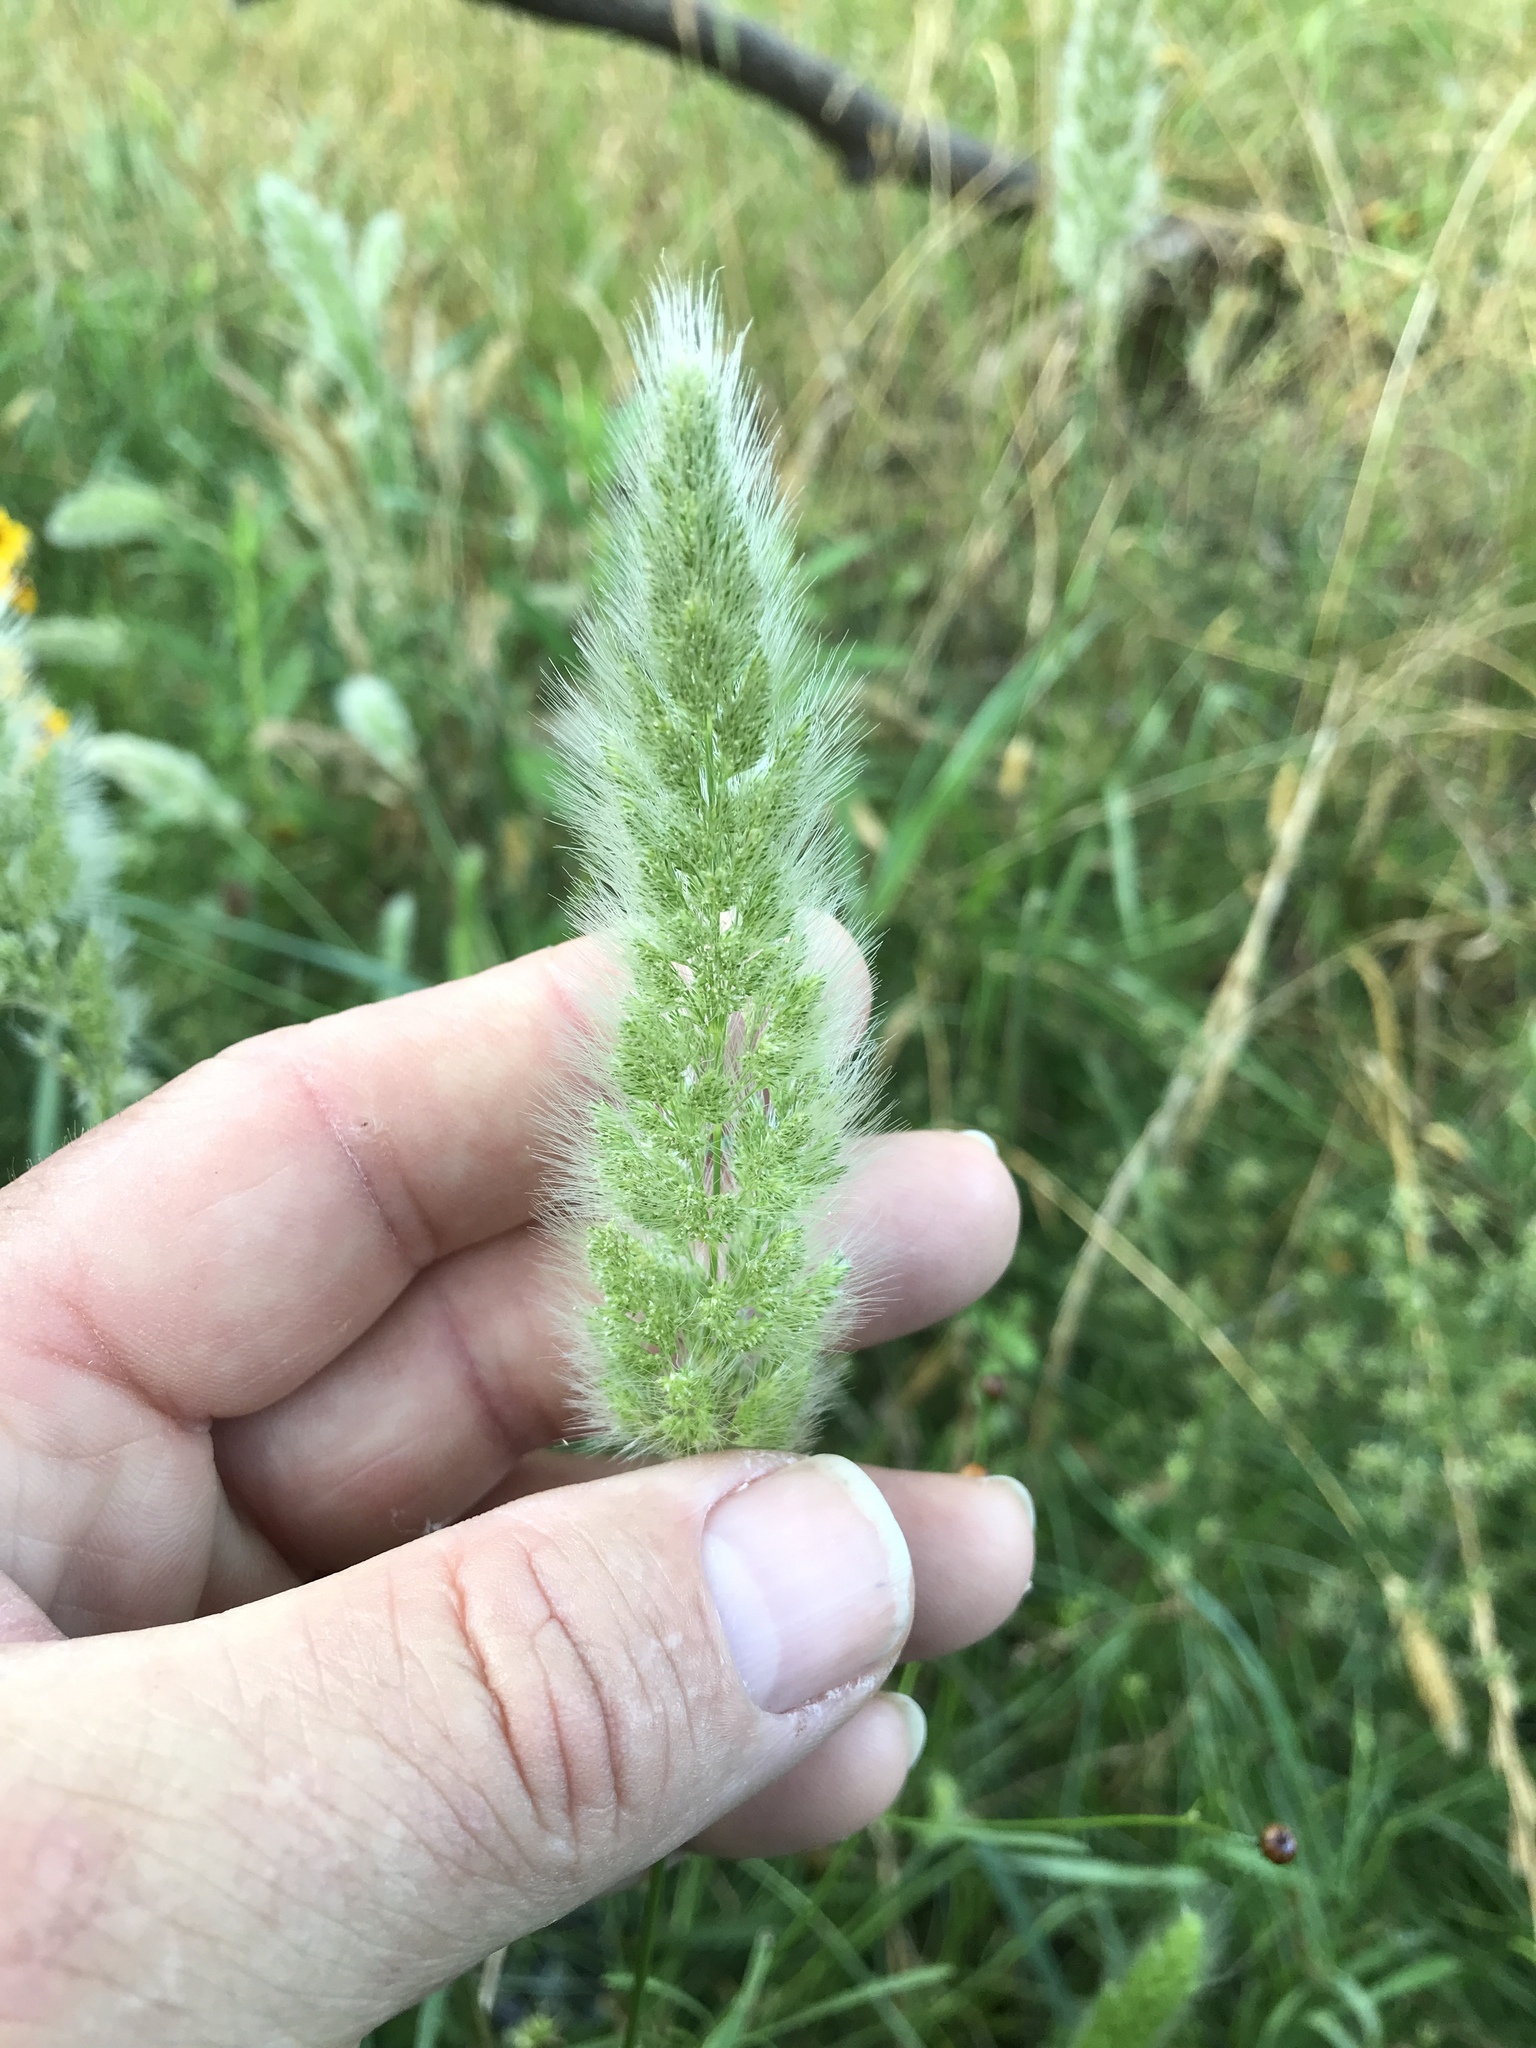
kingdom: Plantae
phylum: Tracheophyta
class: Liliopsida
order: Poales
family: Poaceae
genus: Polypogon
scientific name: Polypogon monspeliensis
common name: Annual rabbitsfoot grass
